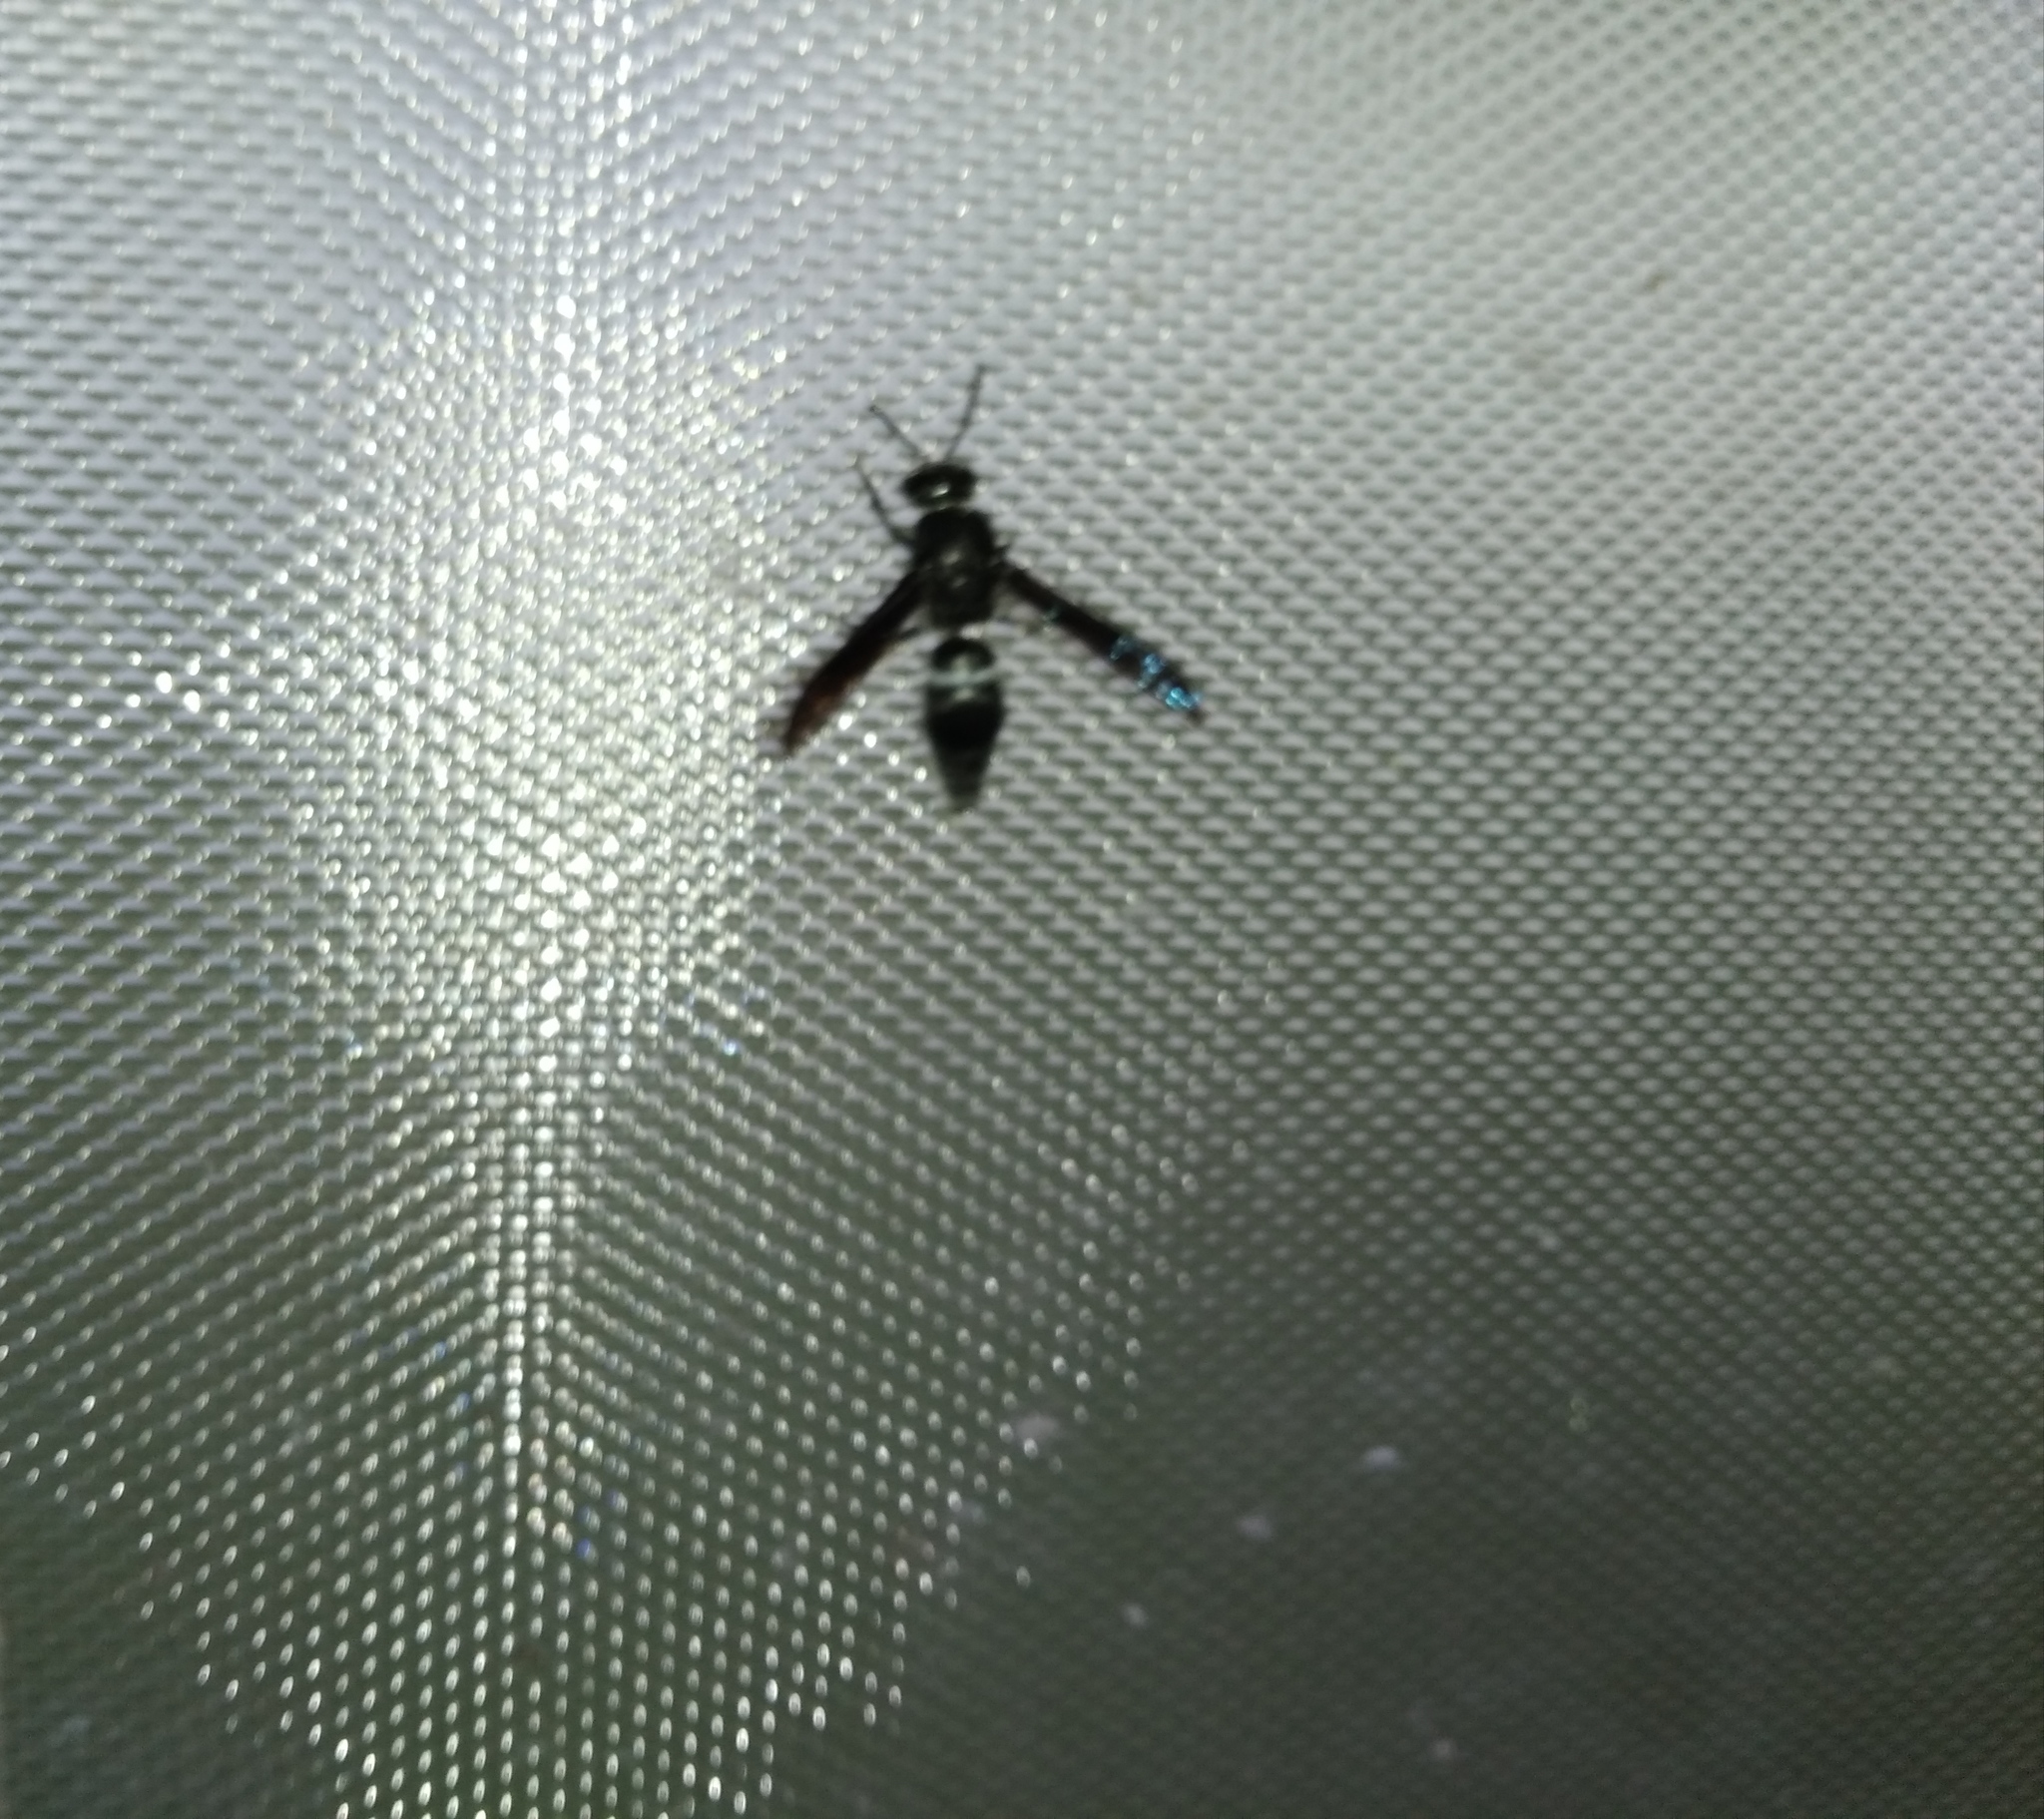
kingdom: Animalia
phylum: Arthropoda
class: Insecta
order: Hymenoptera
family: Vespidae
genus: Indodynerus
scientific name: Indodynerus capitatus
